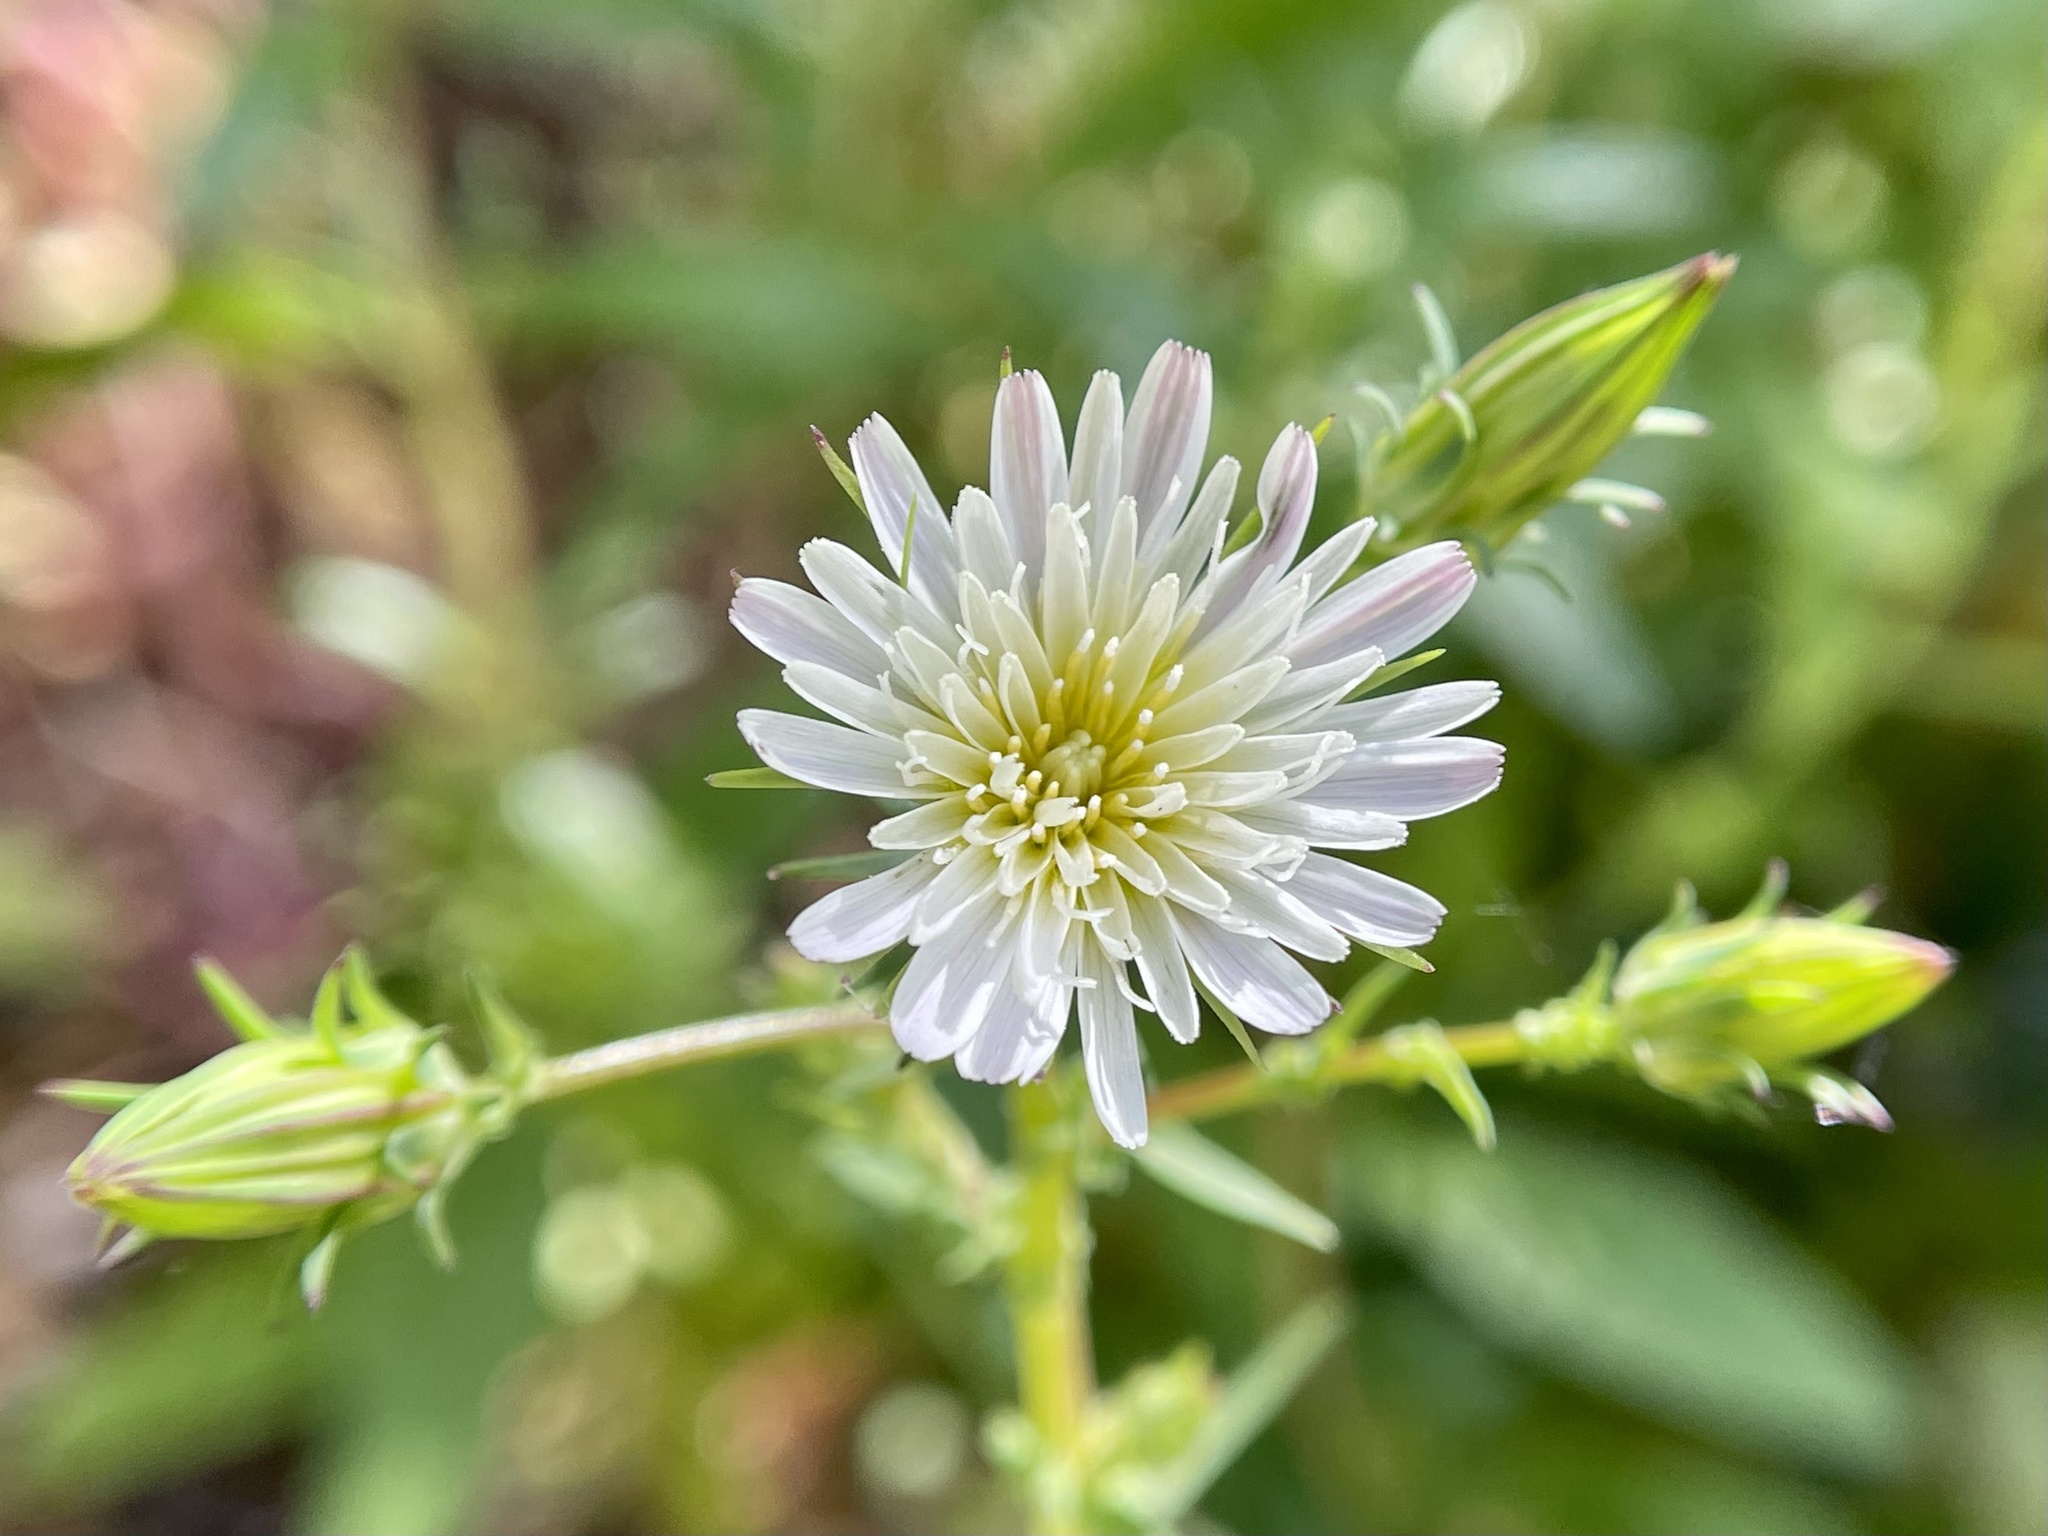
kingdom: Plantae
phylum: Tracheophyta
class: Magnoliopsida
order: Asterales
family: Asteraceae
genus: Rafinesquia
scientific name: Rafinesquia californica
